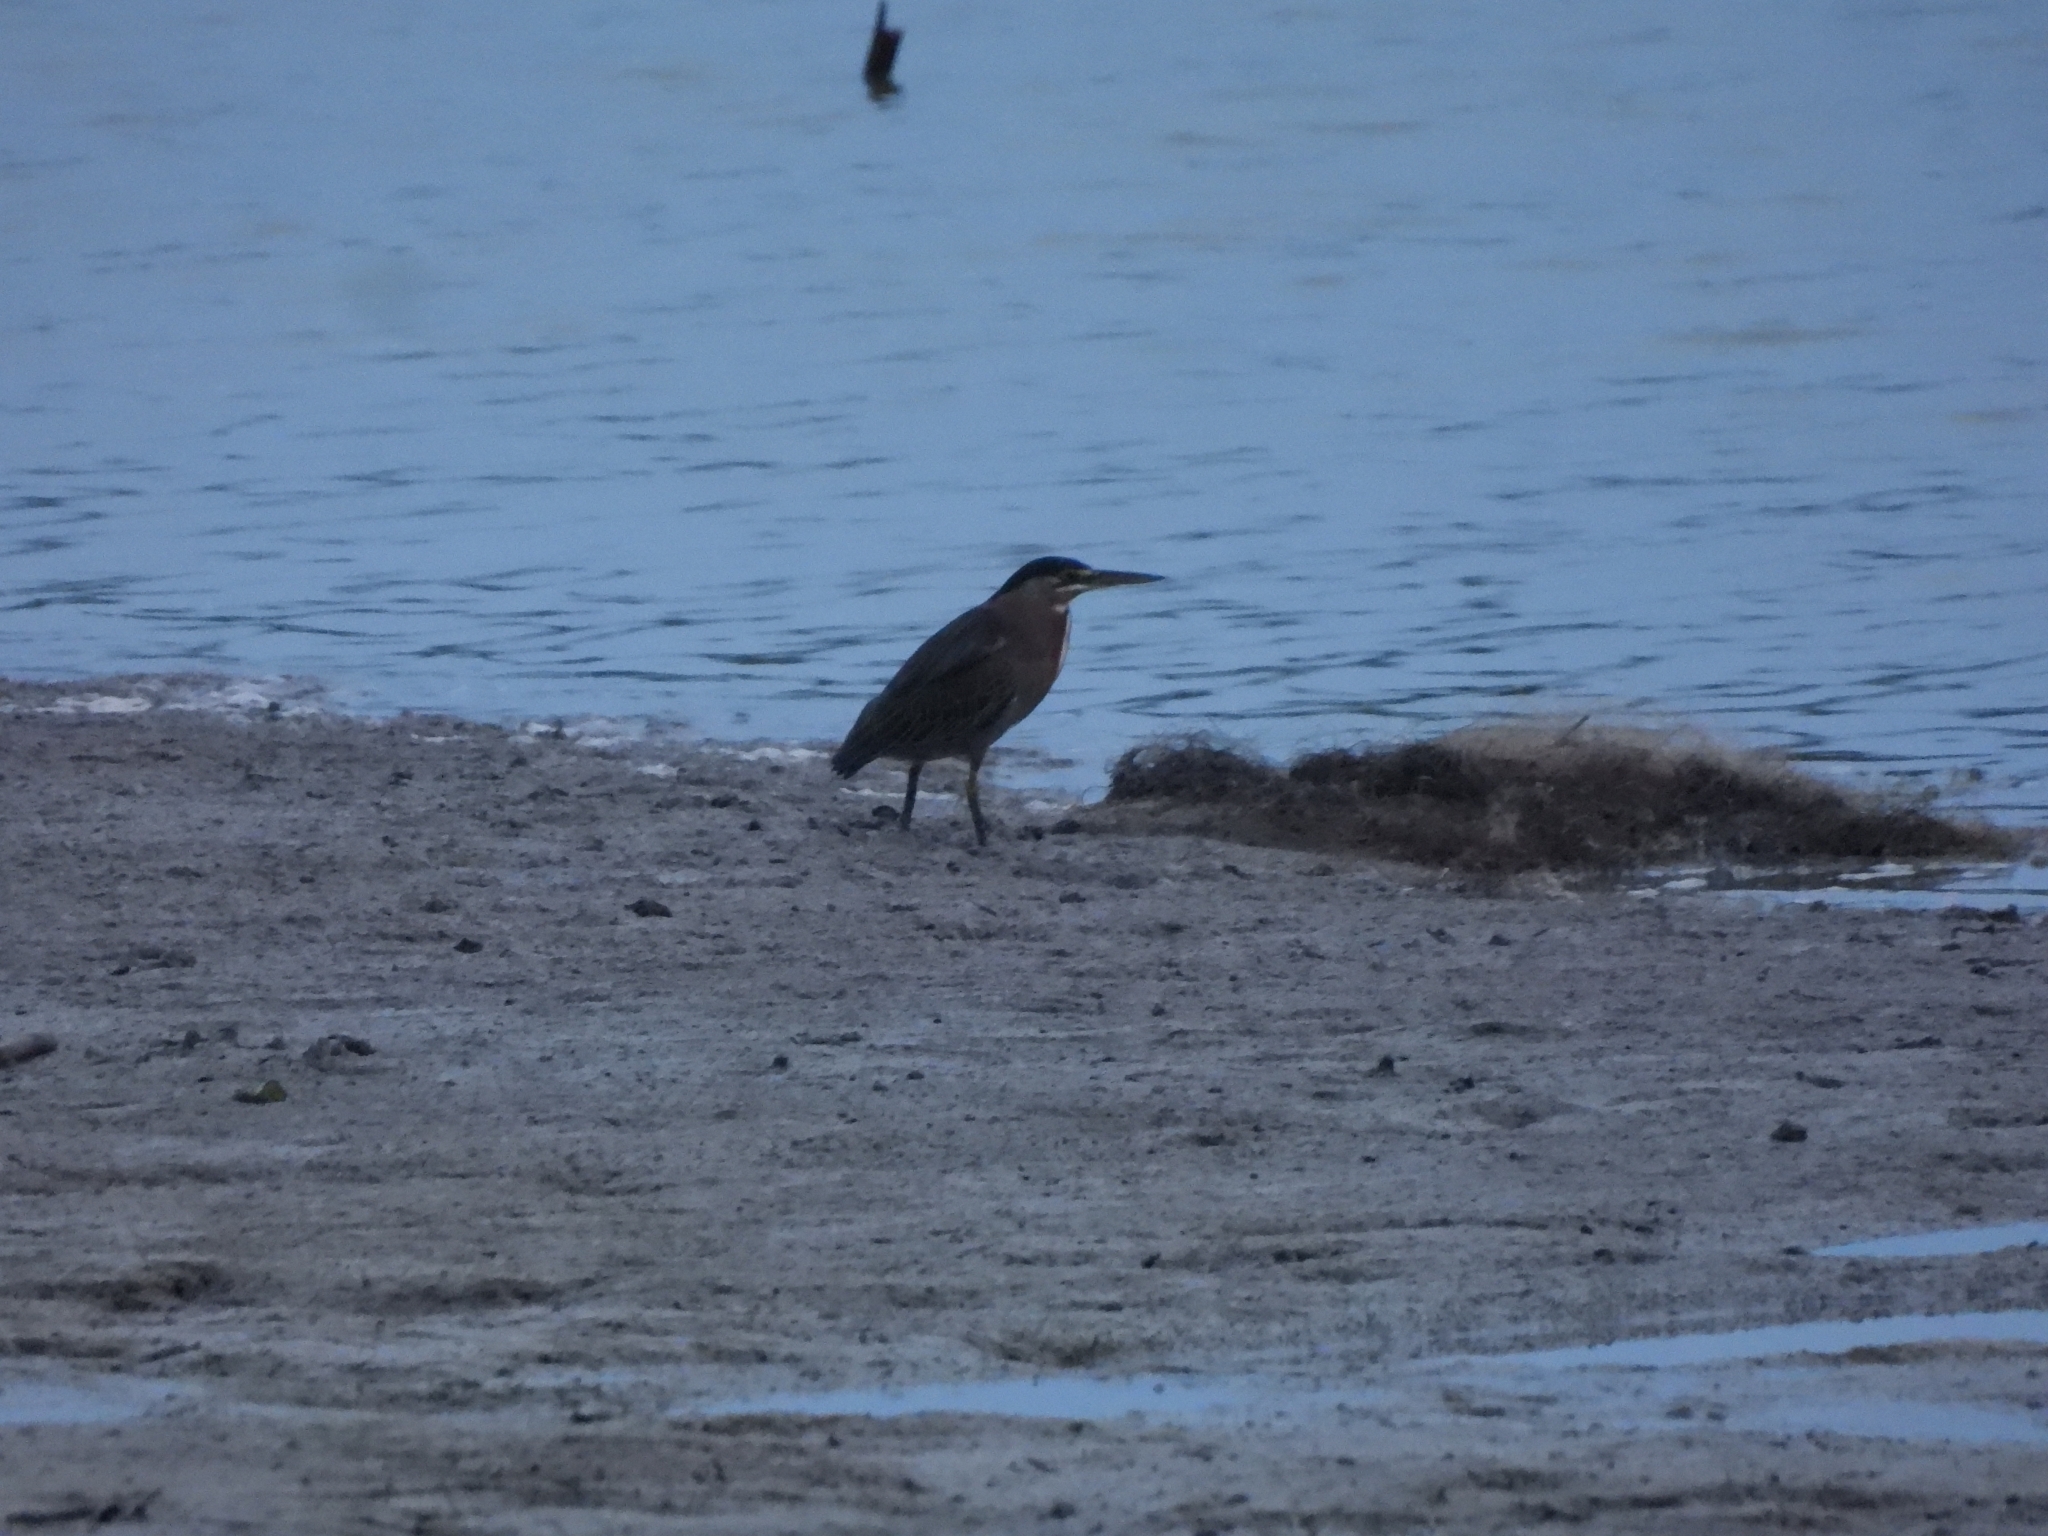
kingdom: Animalia
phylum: Chordata
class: Aves
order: Pelecaniformes
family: Ardeidae
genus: Butorides
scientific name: Butorides striata
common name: Striated heron
